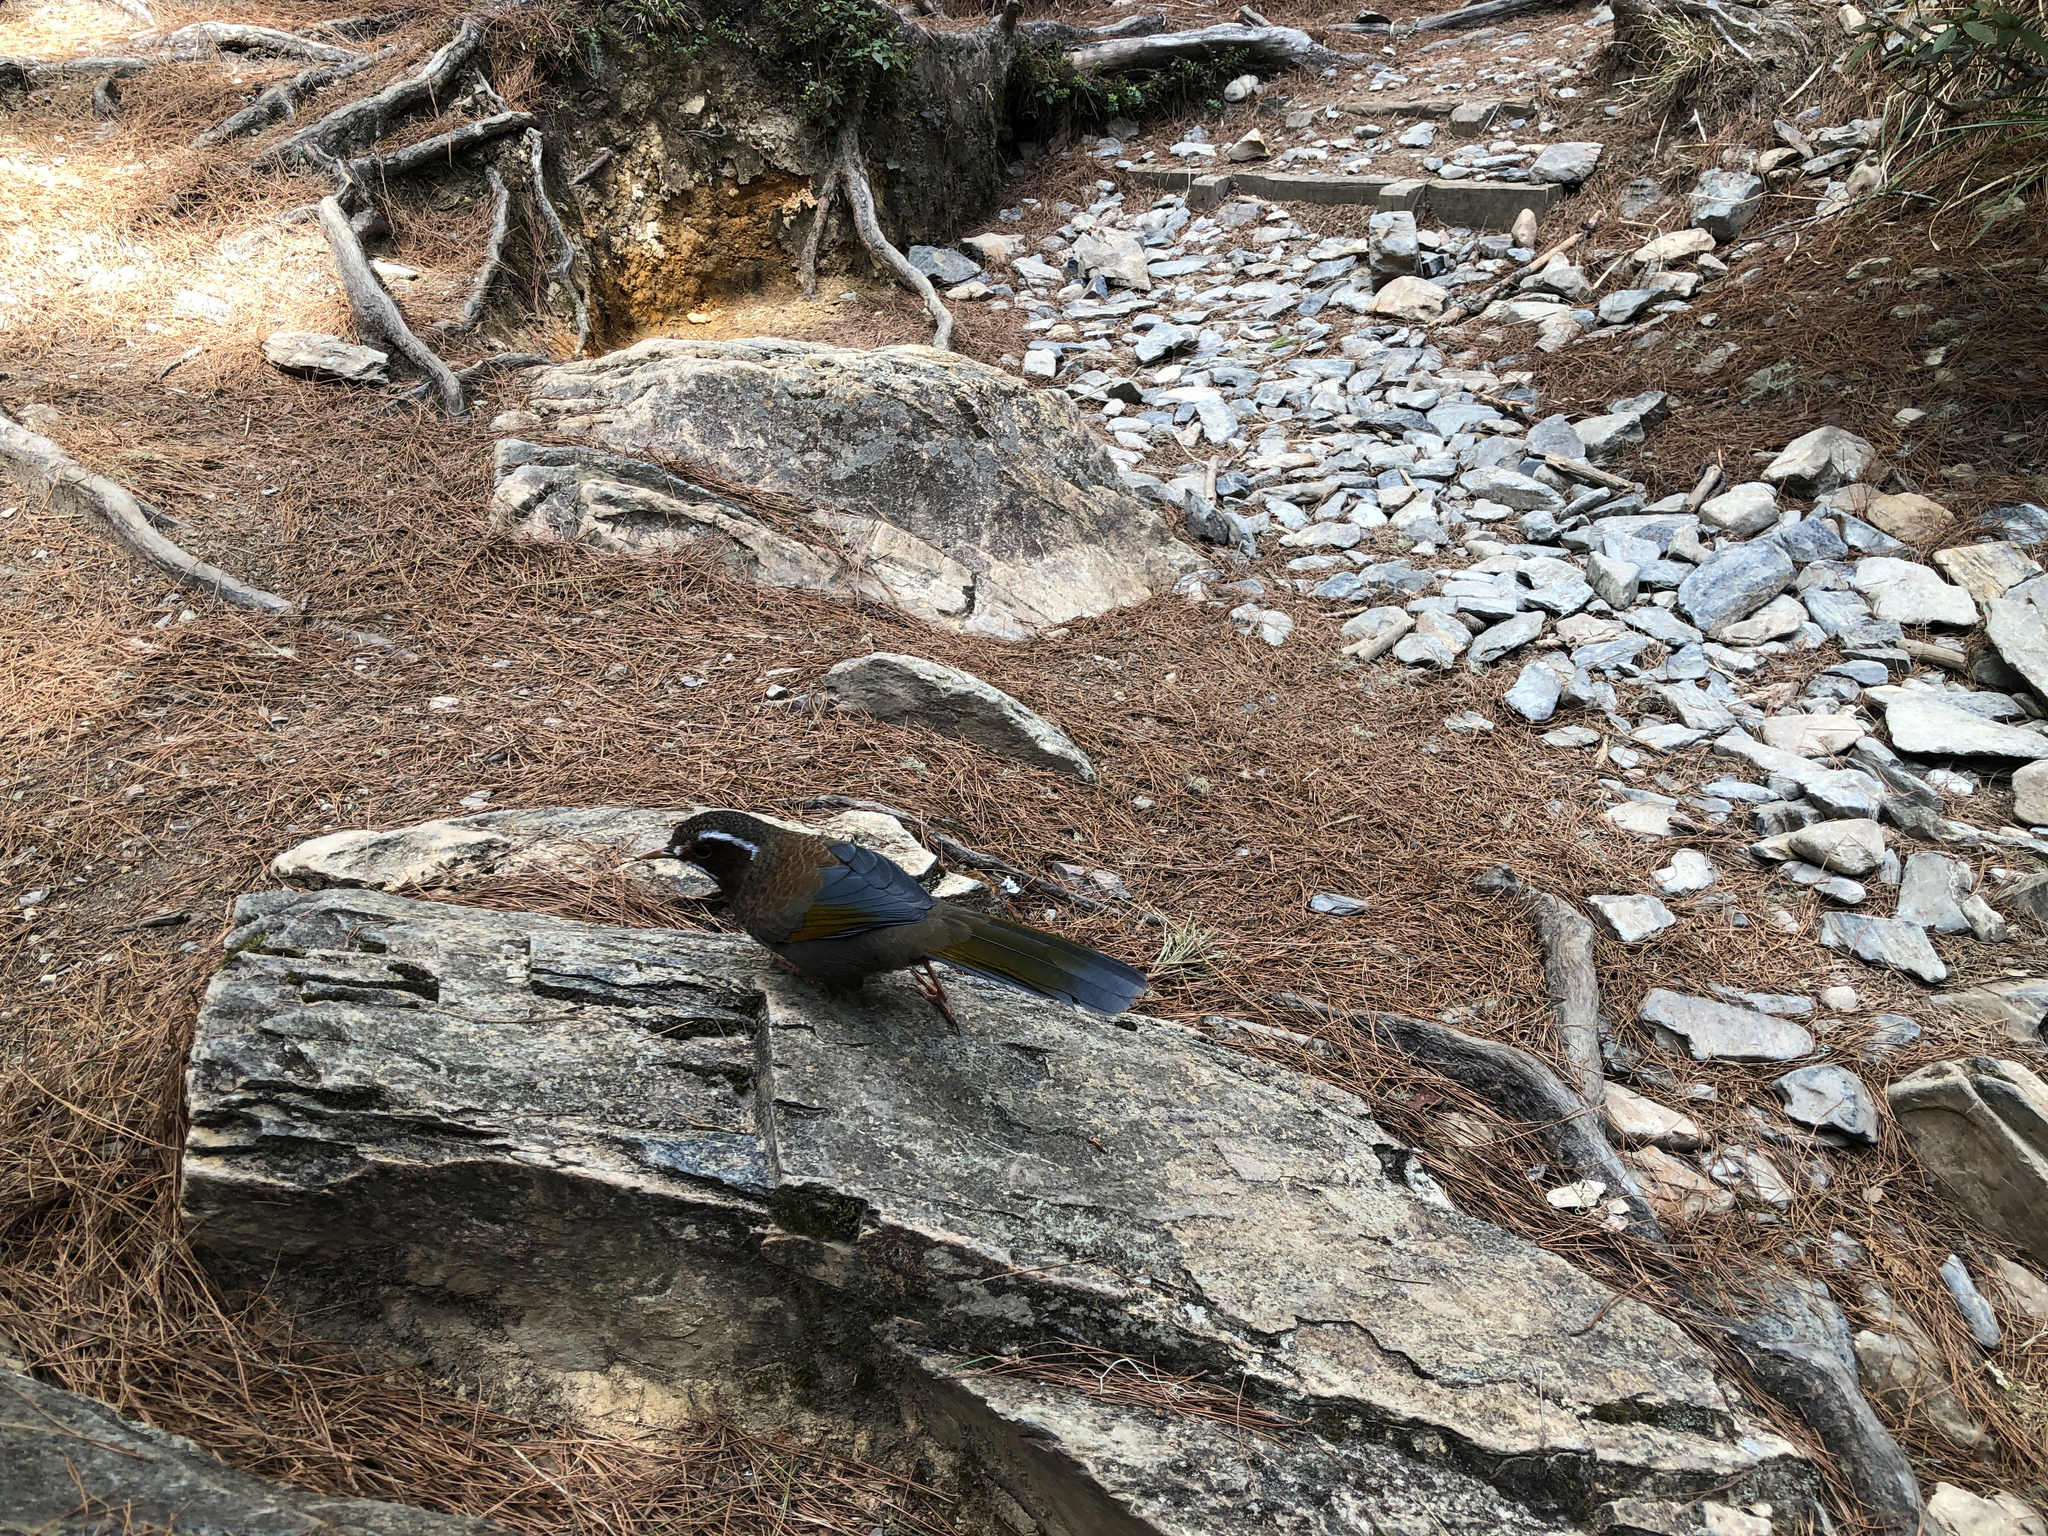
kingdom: Animalia
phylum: Chordata
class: Aves
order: Passeriformes
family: Leiothrichidae
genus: Trochalopteron
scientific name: Trochalopteron morrisonianum
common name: White-whiskered laughingthrush
